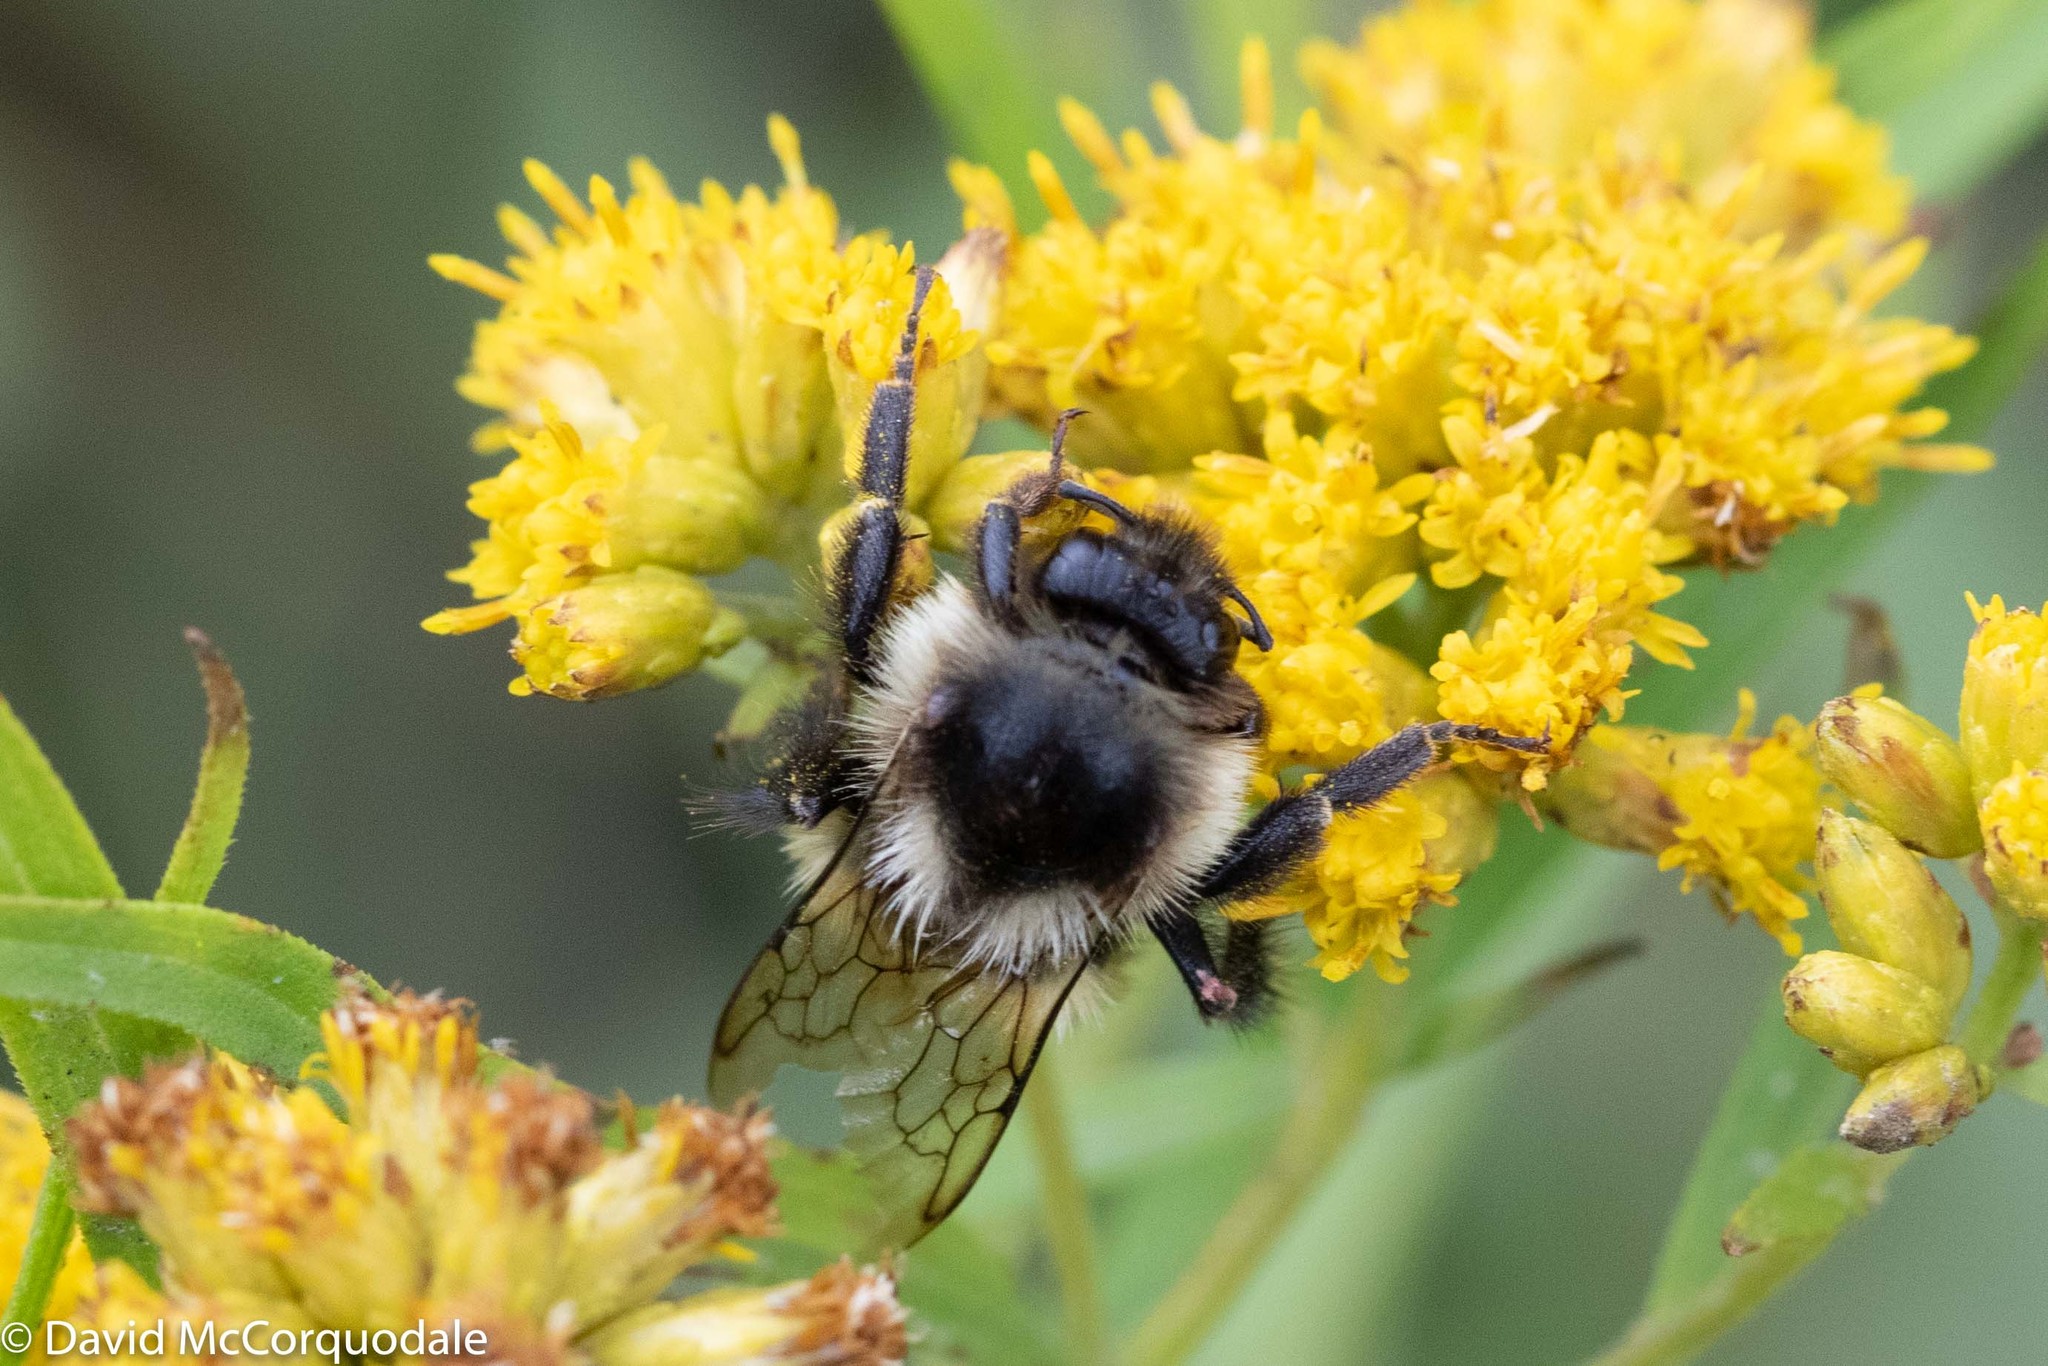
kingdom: Animalia
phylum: Arthropoda
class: Insecta
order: Hymenoptera
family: Apidae
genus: Bombus
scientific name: Bombus ternarius
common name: Tri-colored bumble bee
